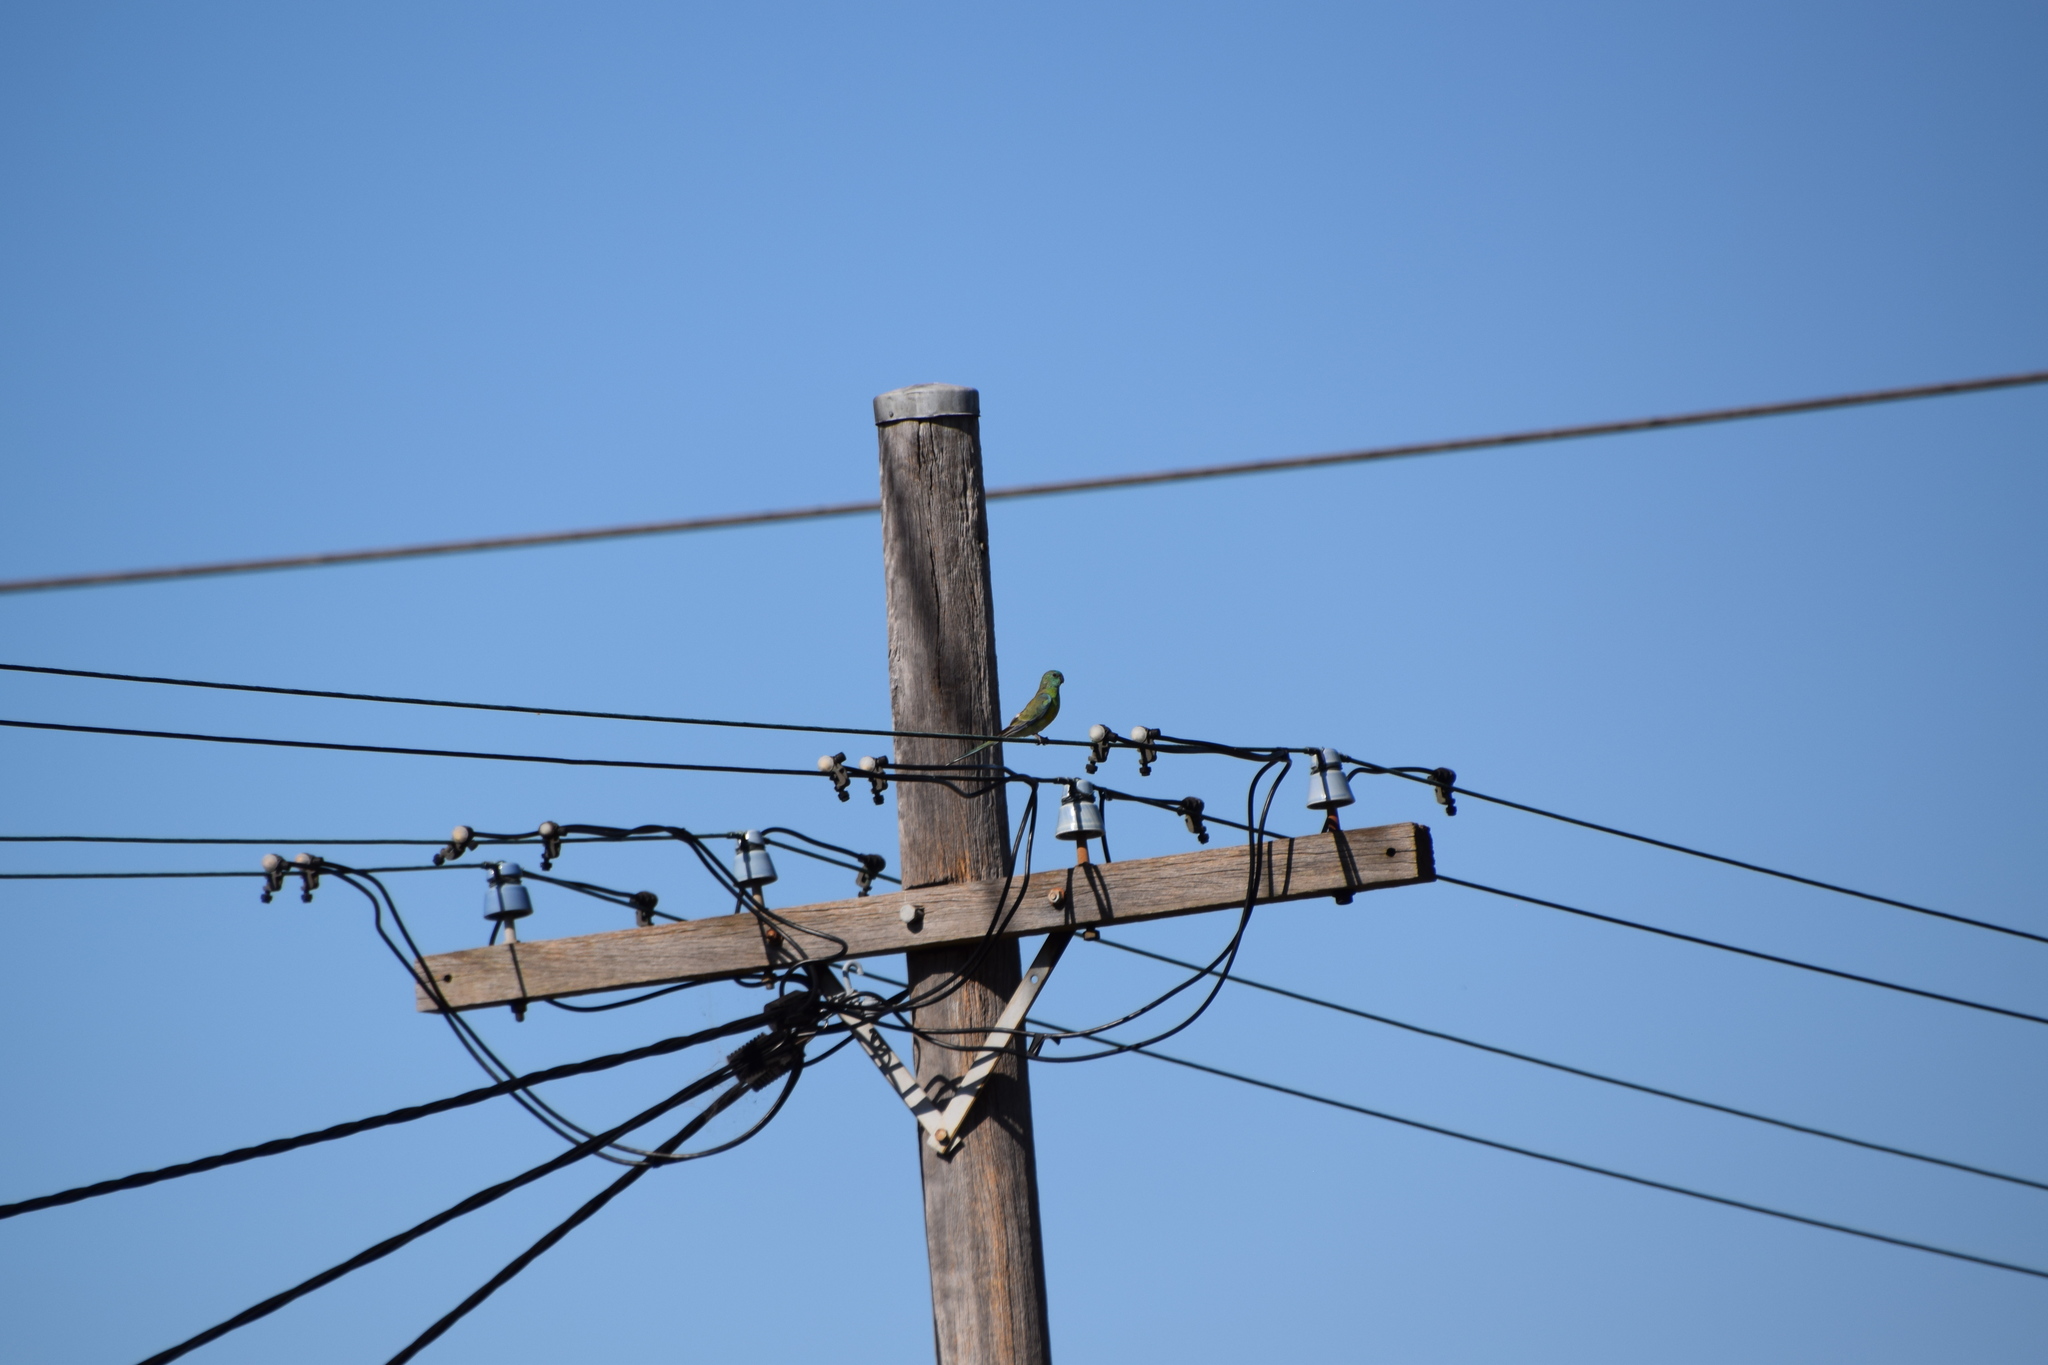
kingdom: Animalia
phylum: Chordata
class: Aves
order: Psittaciformes
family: Psittacidae
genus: Psephotus
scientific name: Psephotus haematonotus
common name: Red-rumped parrot
